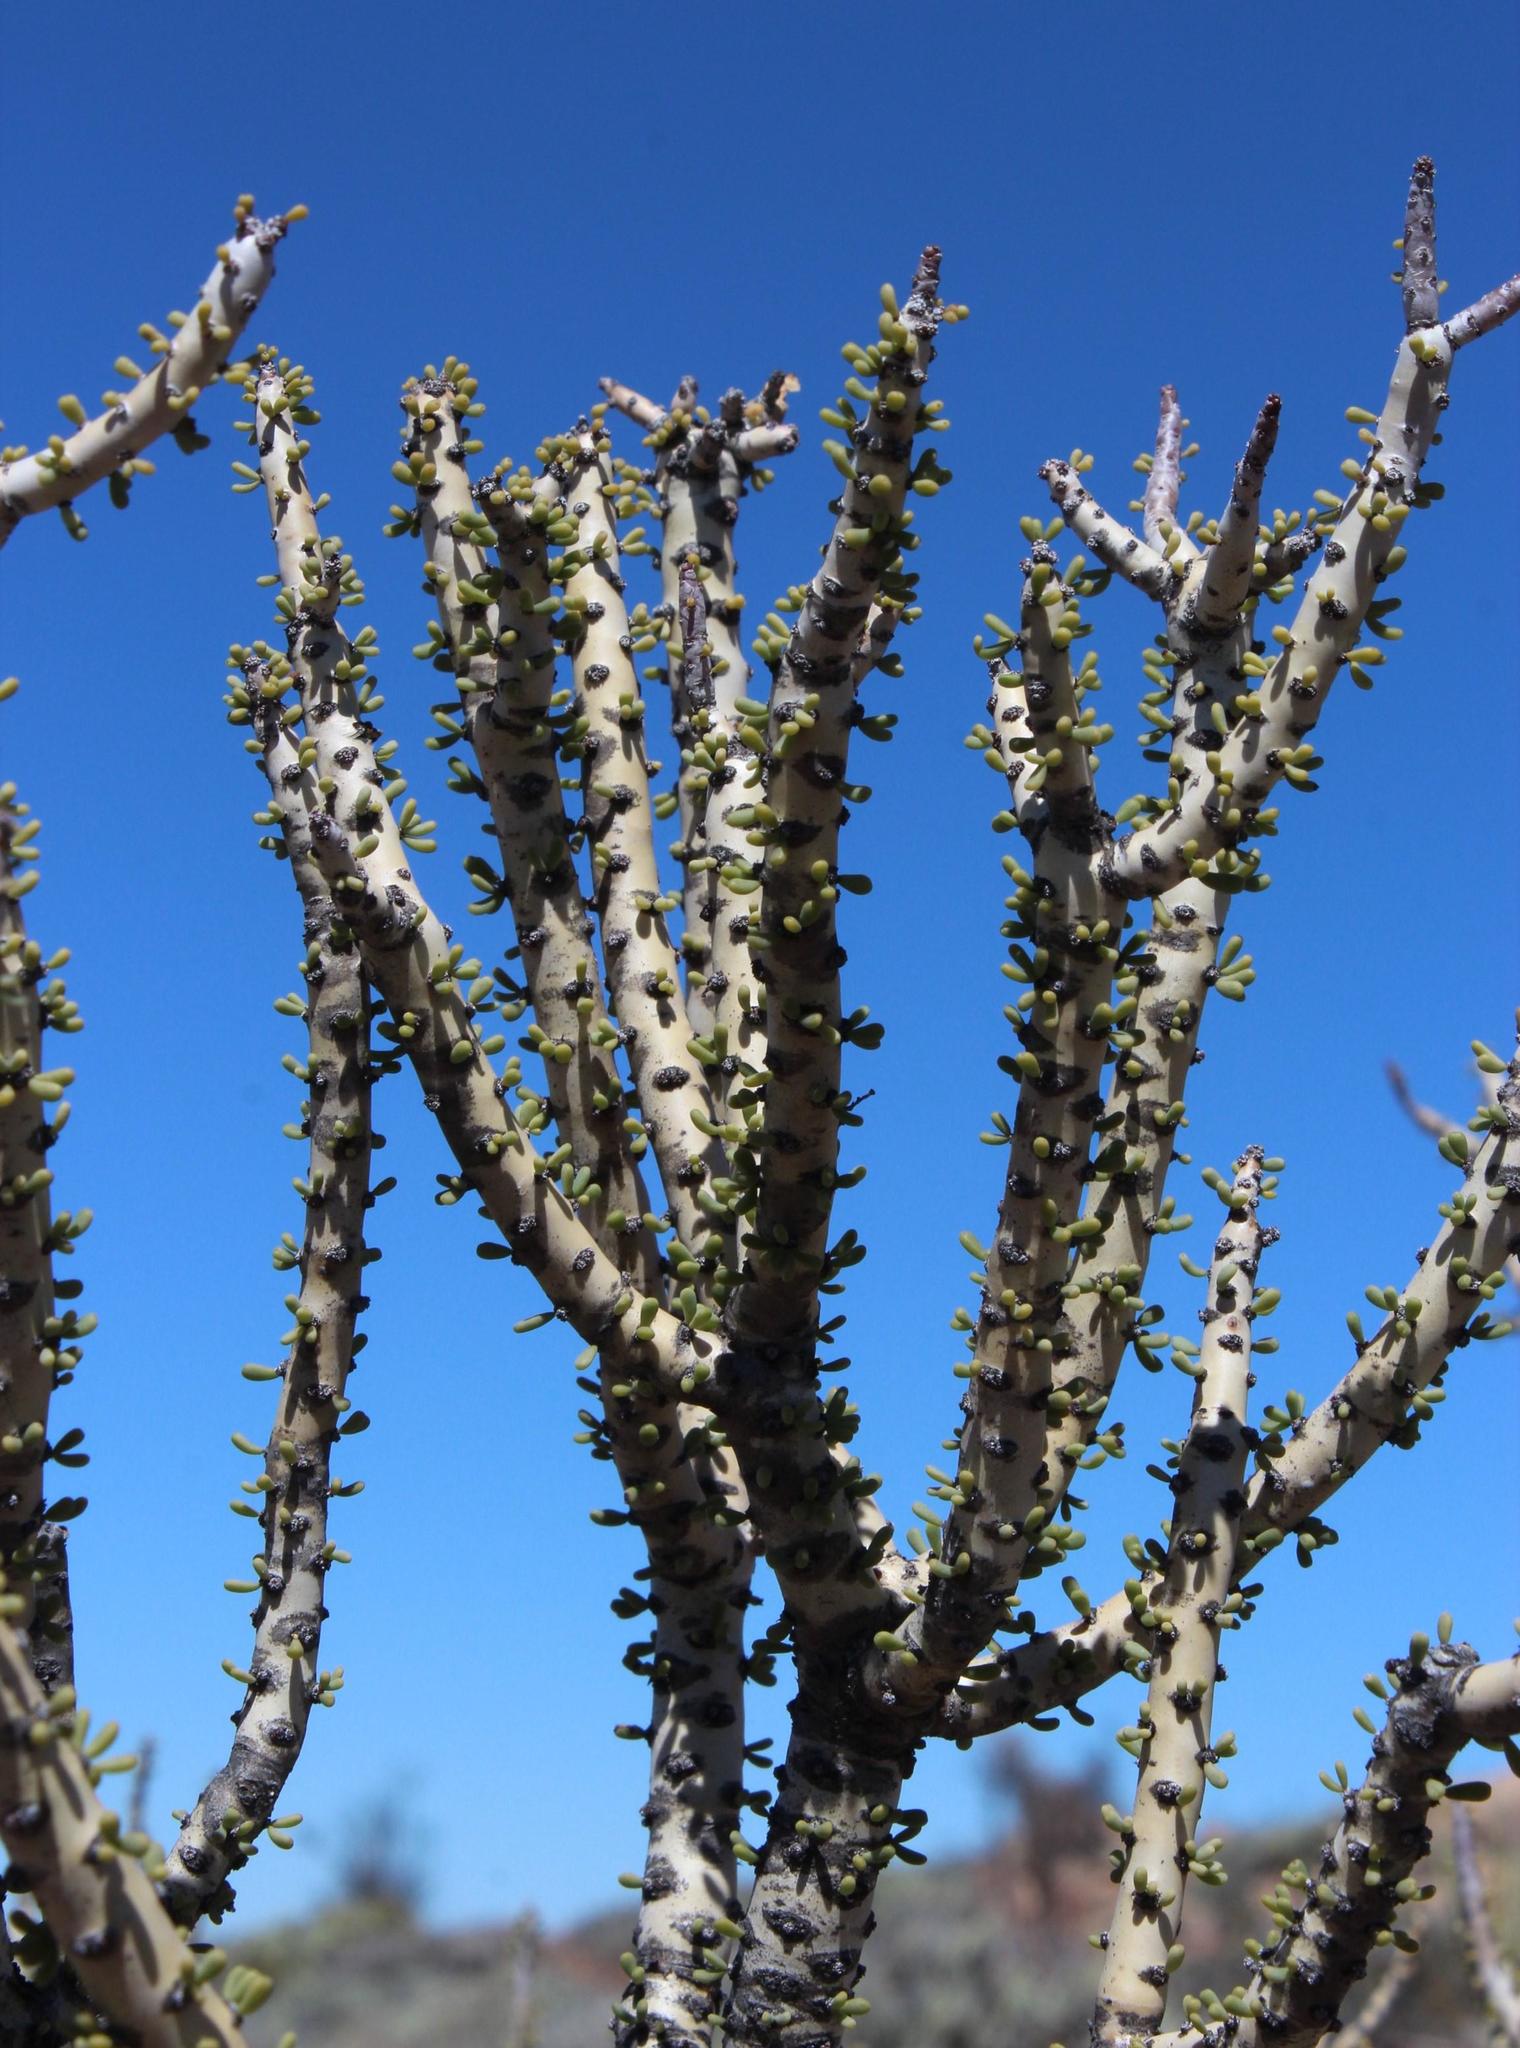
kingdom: Plantae
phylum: Tracheophyta
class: Magnoliopsida
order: Caryophyllales
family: Didiereaceae
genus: Portulacaria
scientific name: Portulacaria namaquensis
